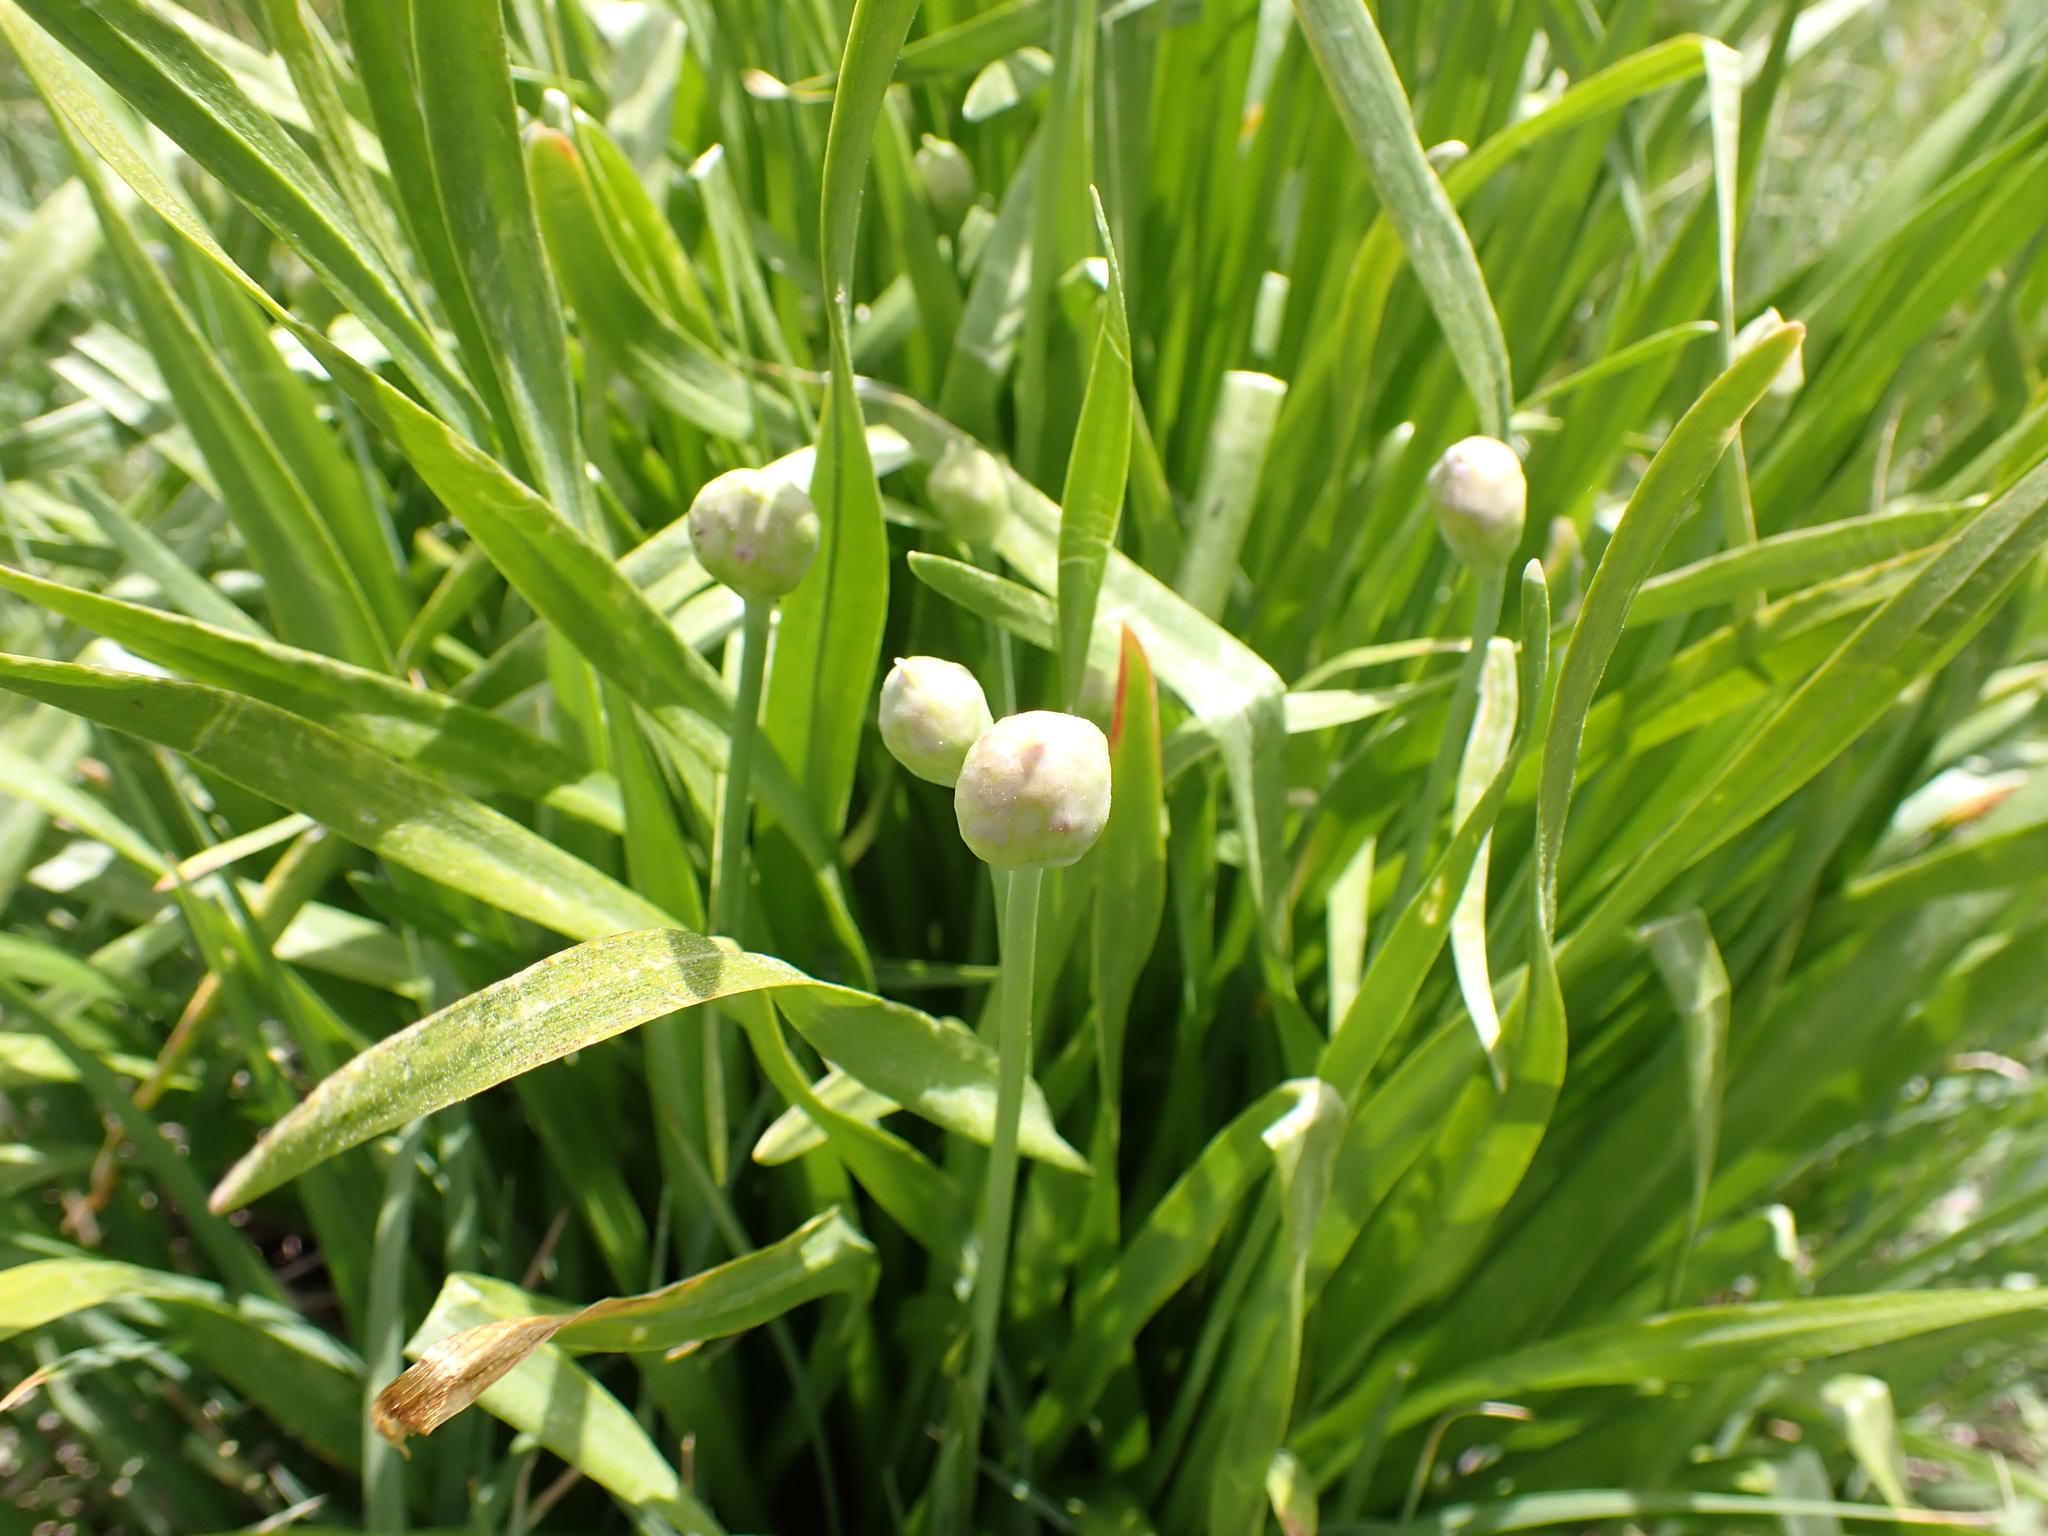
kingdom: Plantae
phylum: Tracheophyta
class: Liliopsida
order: Asparagales
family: Amaryllidaceae
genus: Allium
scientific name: Allium validum
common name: Pacific mountain onion
